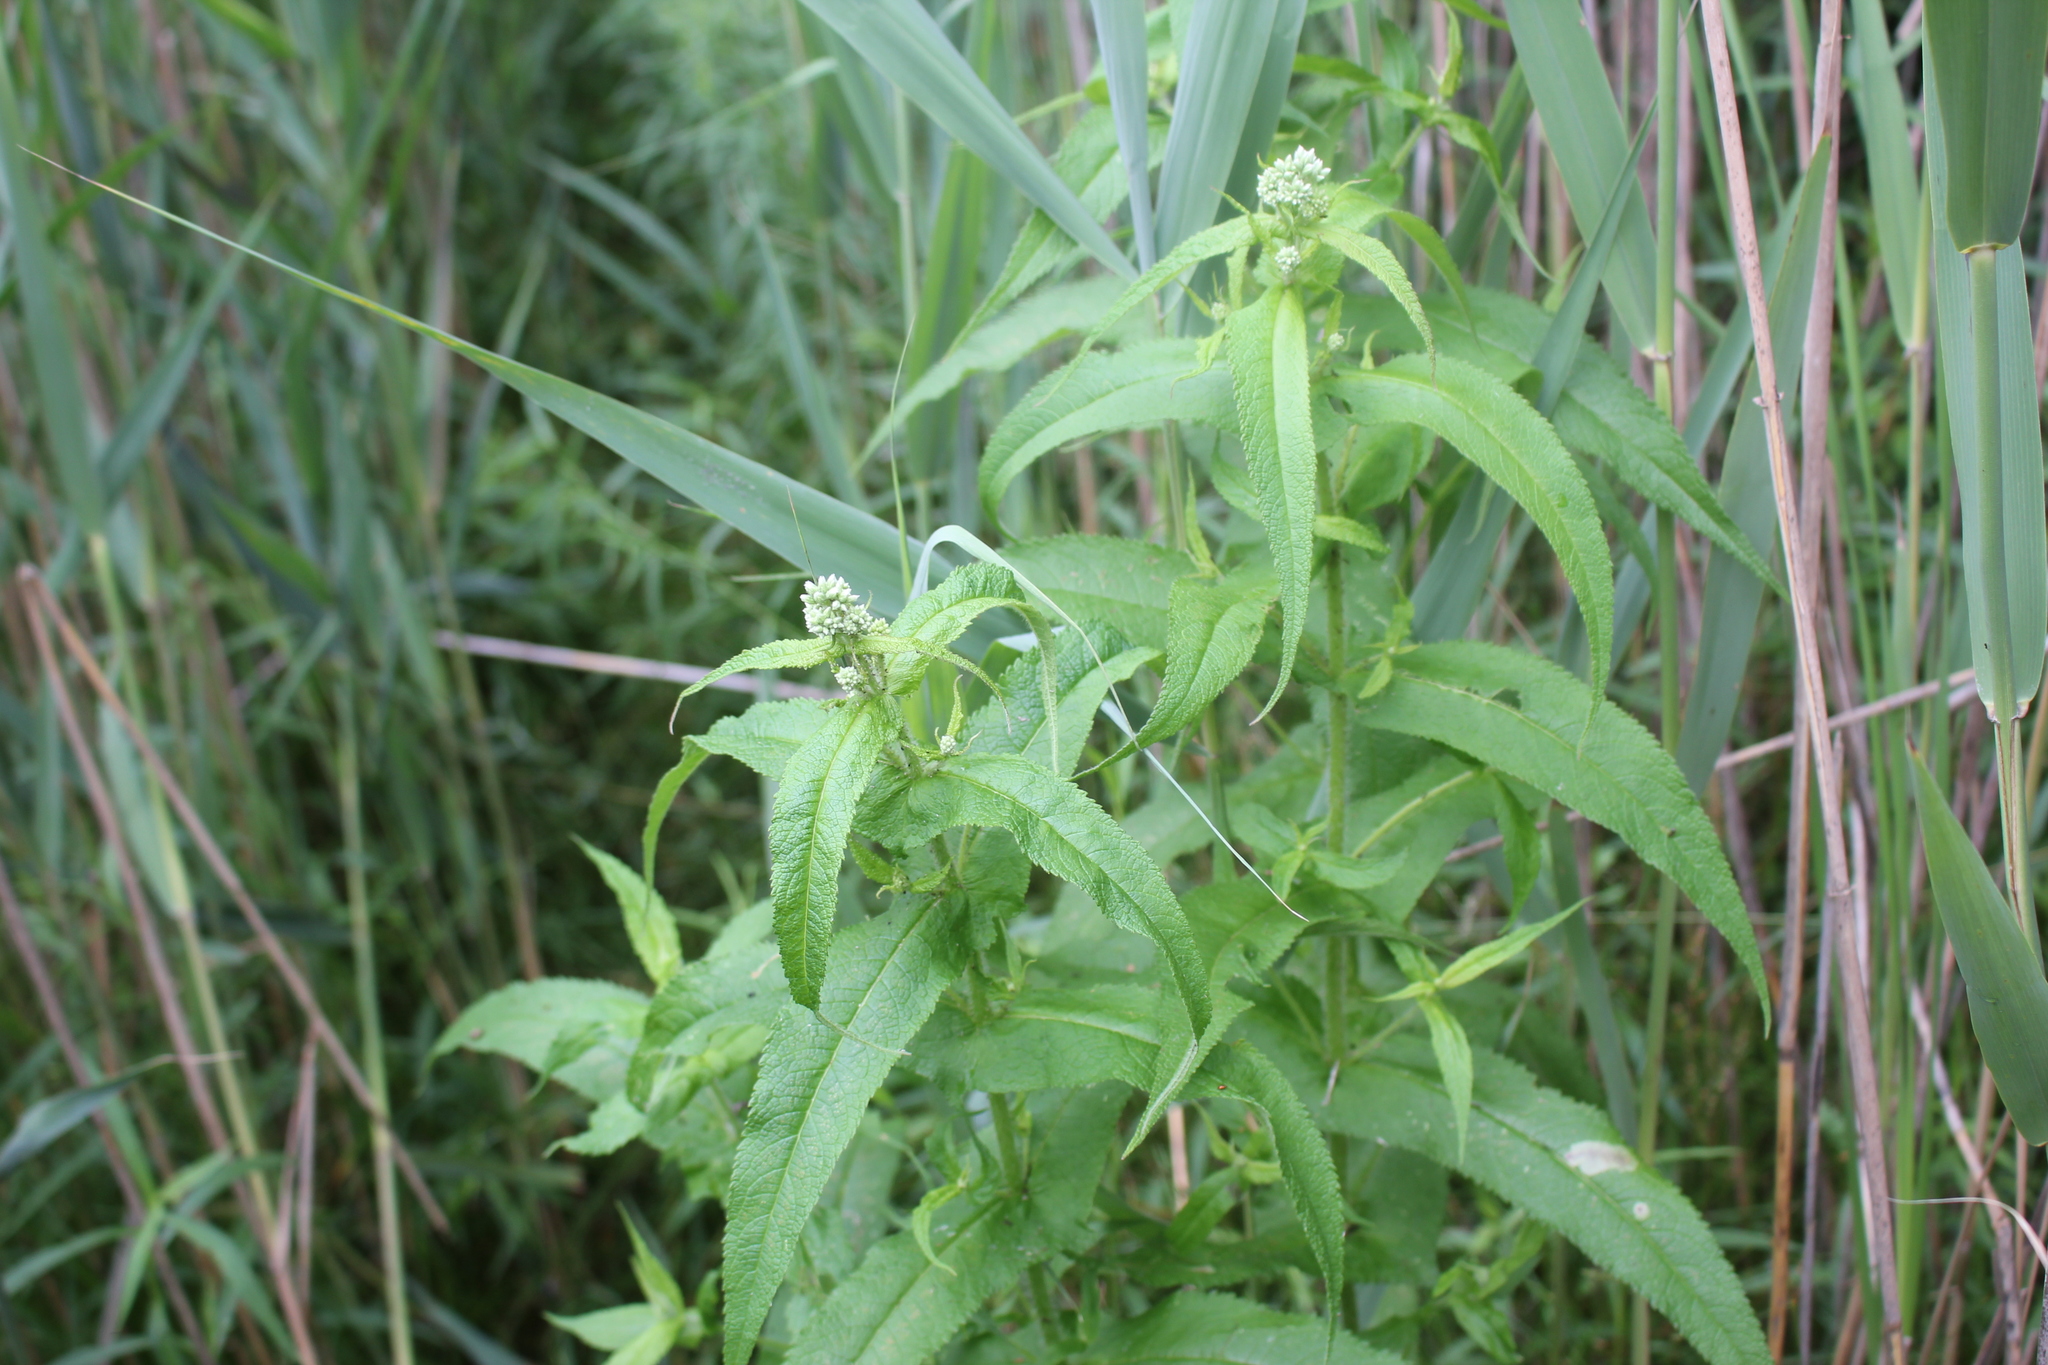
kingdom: Plantae
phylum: Tracheophyta
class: Magnoliopsida
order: Asterales
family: Asteraceae
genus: Eupatorium
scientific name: Eupatorium perfoliatum
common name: Boneset
